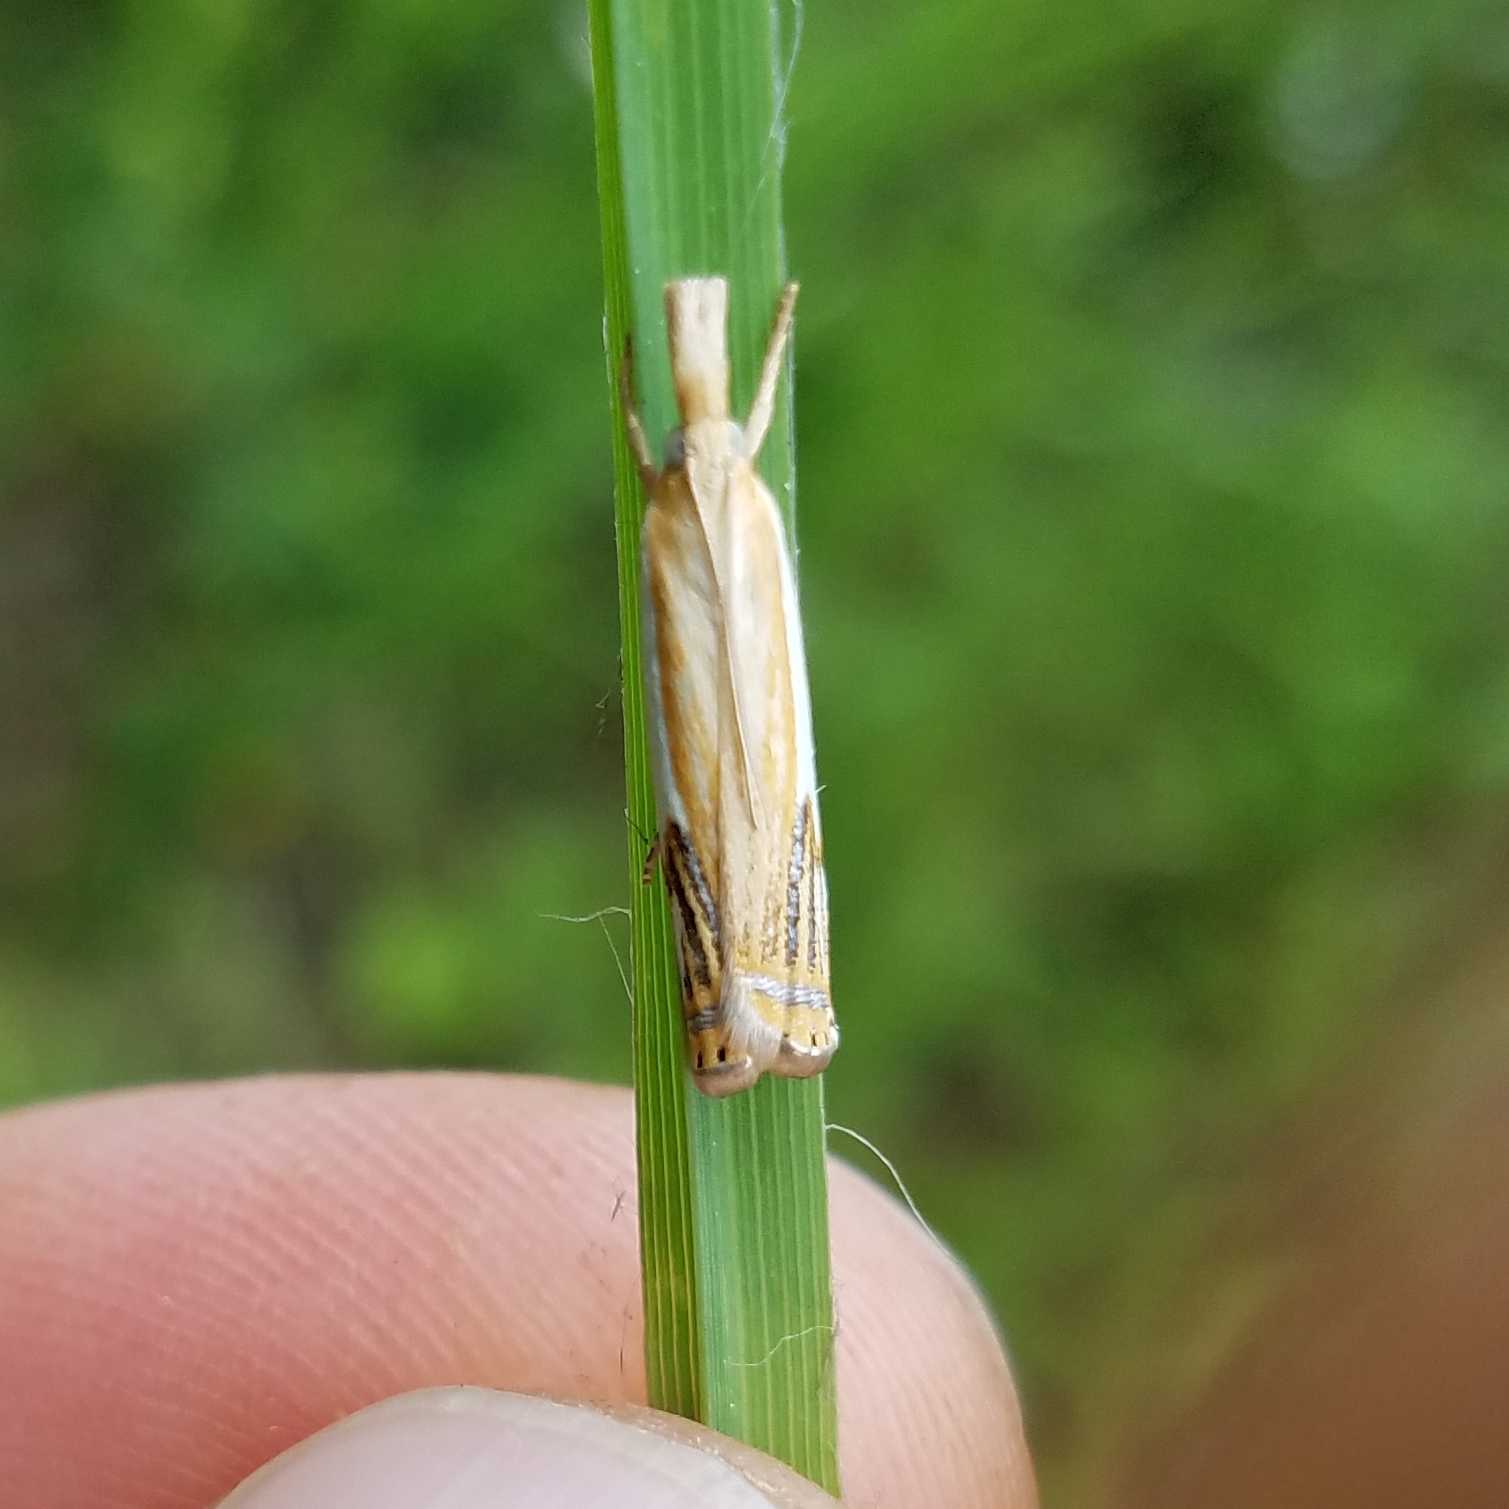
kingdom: Animalia
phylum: Arthropoda
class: Insecta
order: Lepidoptera
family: Crambidae
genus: Crambus
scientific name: Crambus agitatellus
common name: Double-banded grass-veneer
